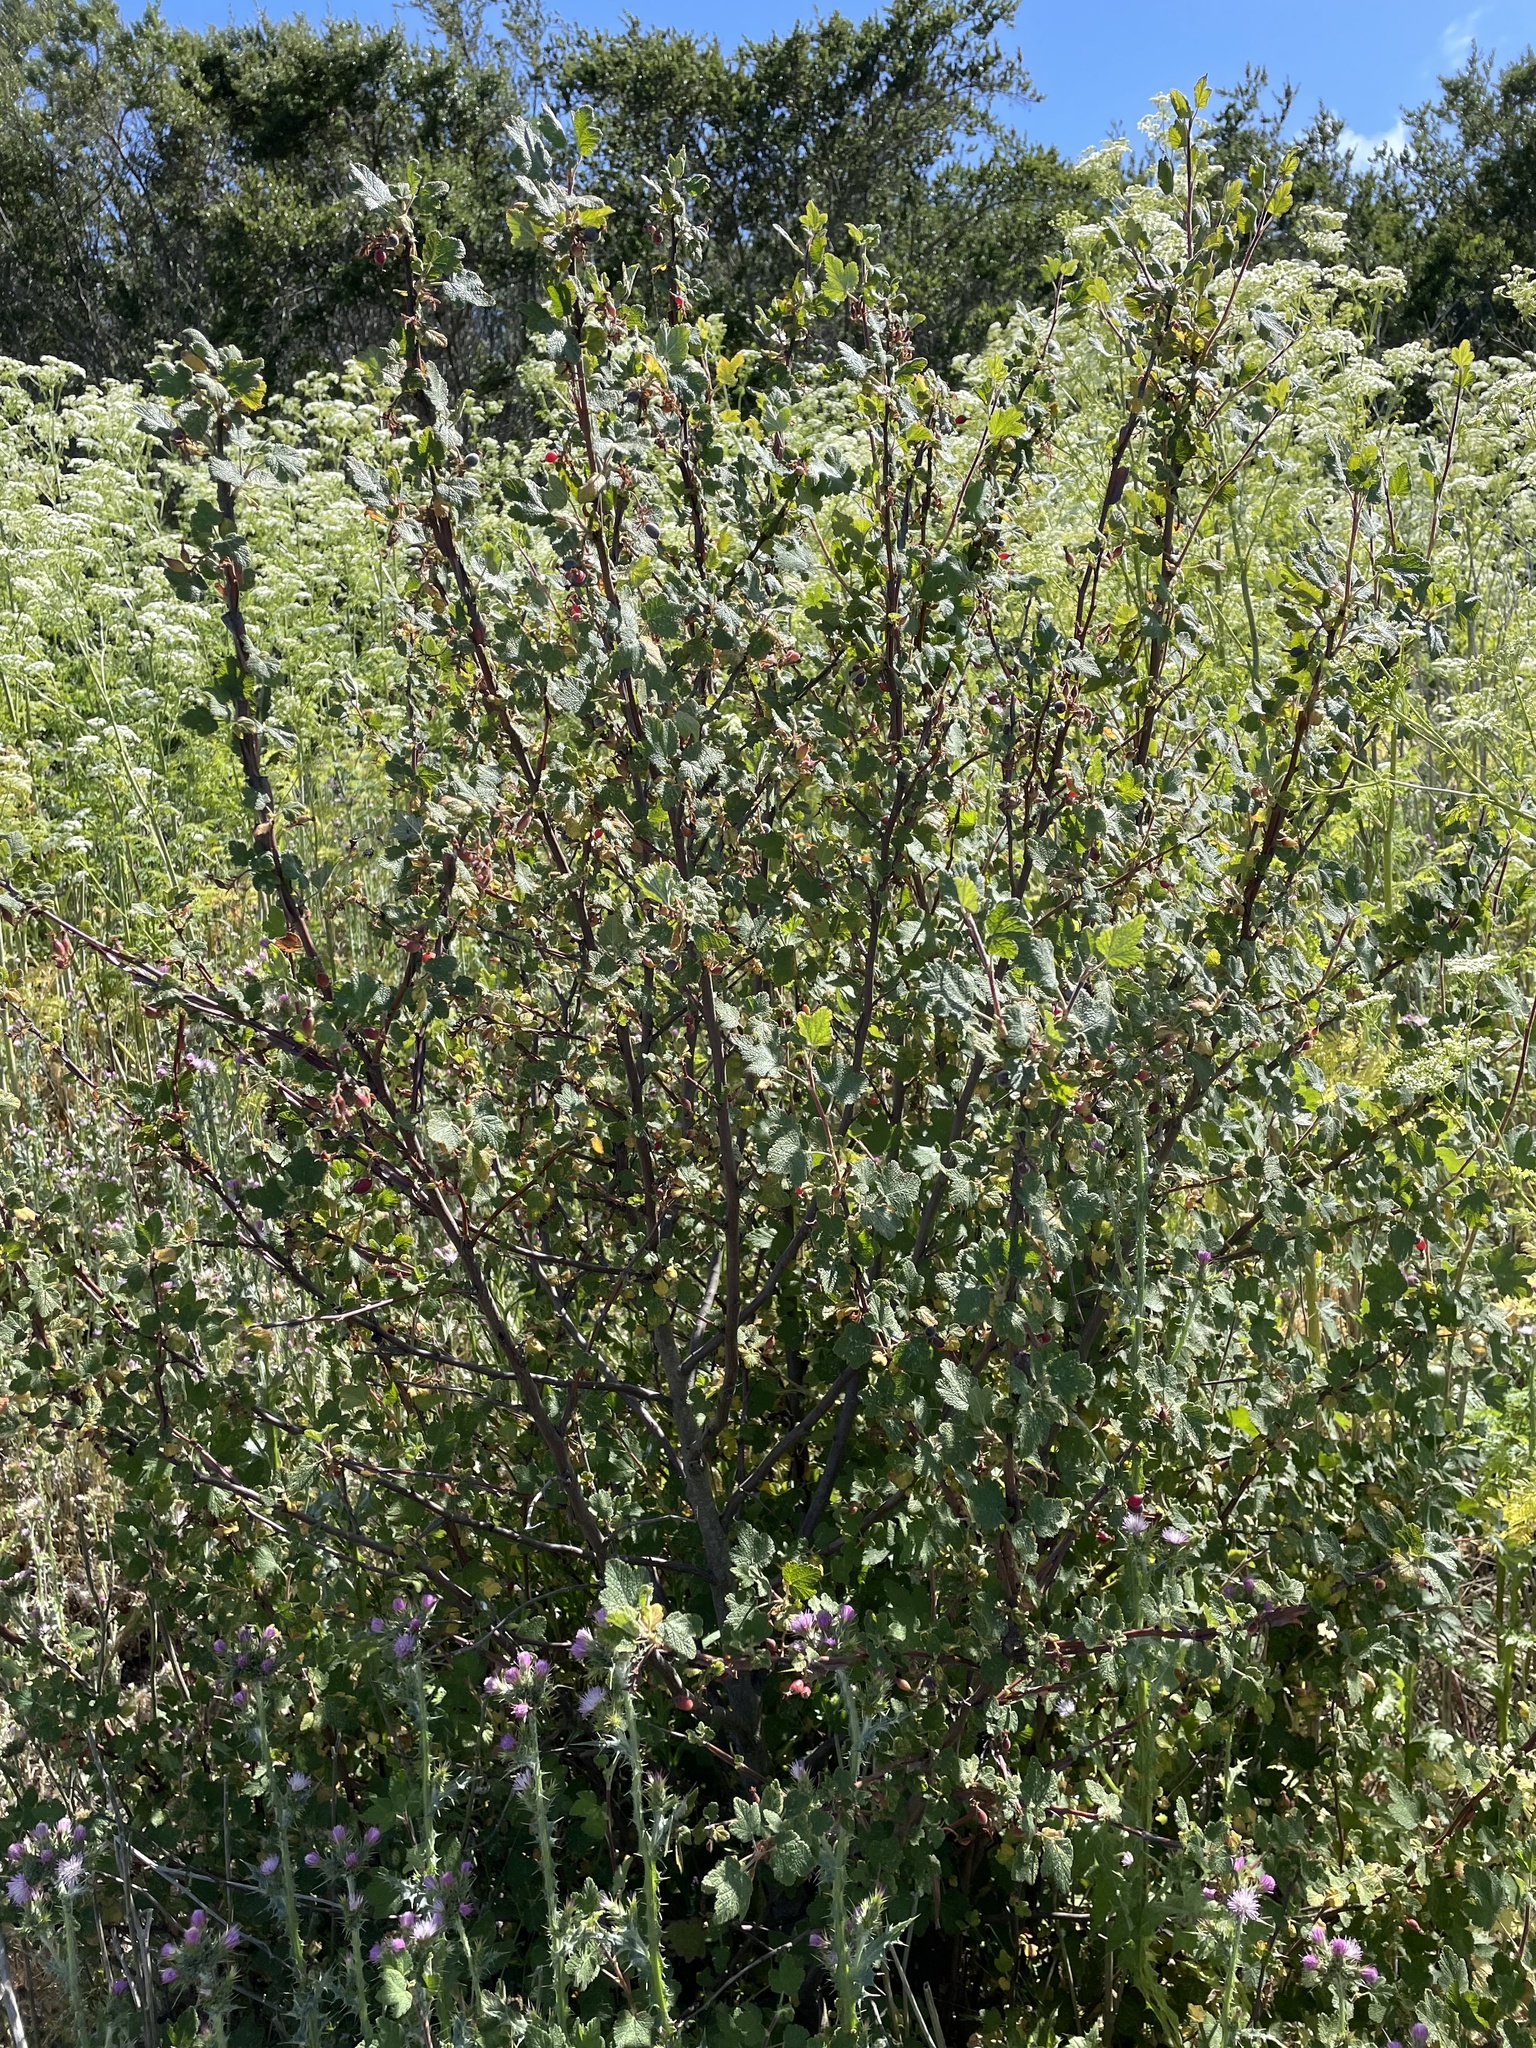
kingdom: Plantae
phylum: Tracheophyta
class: Magnoliopsida
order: Saxifragales
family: Grossulariaceae
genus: Ribes
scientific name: Ribes malvaceum
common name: Chaparral currant
